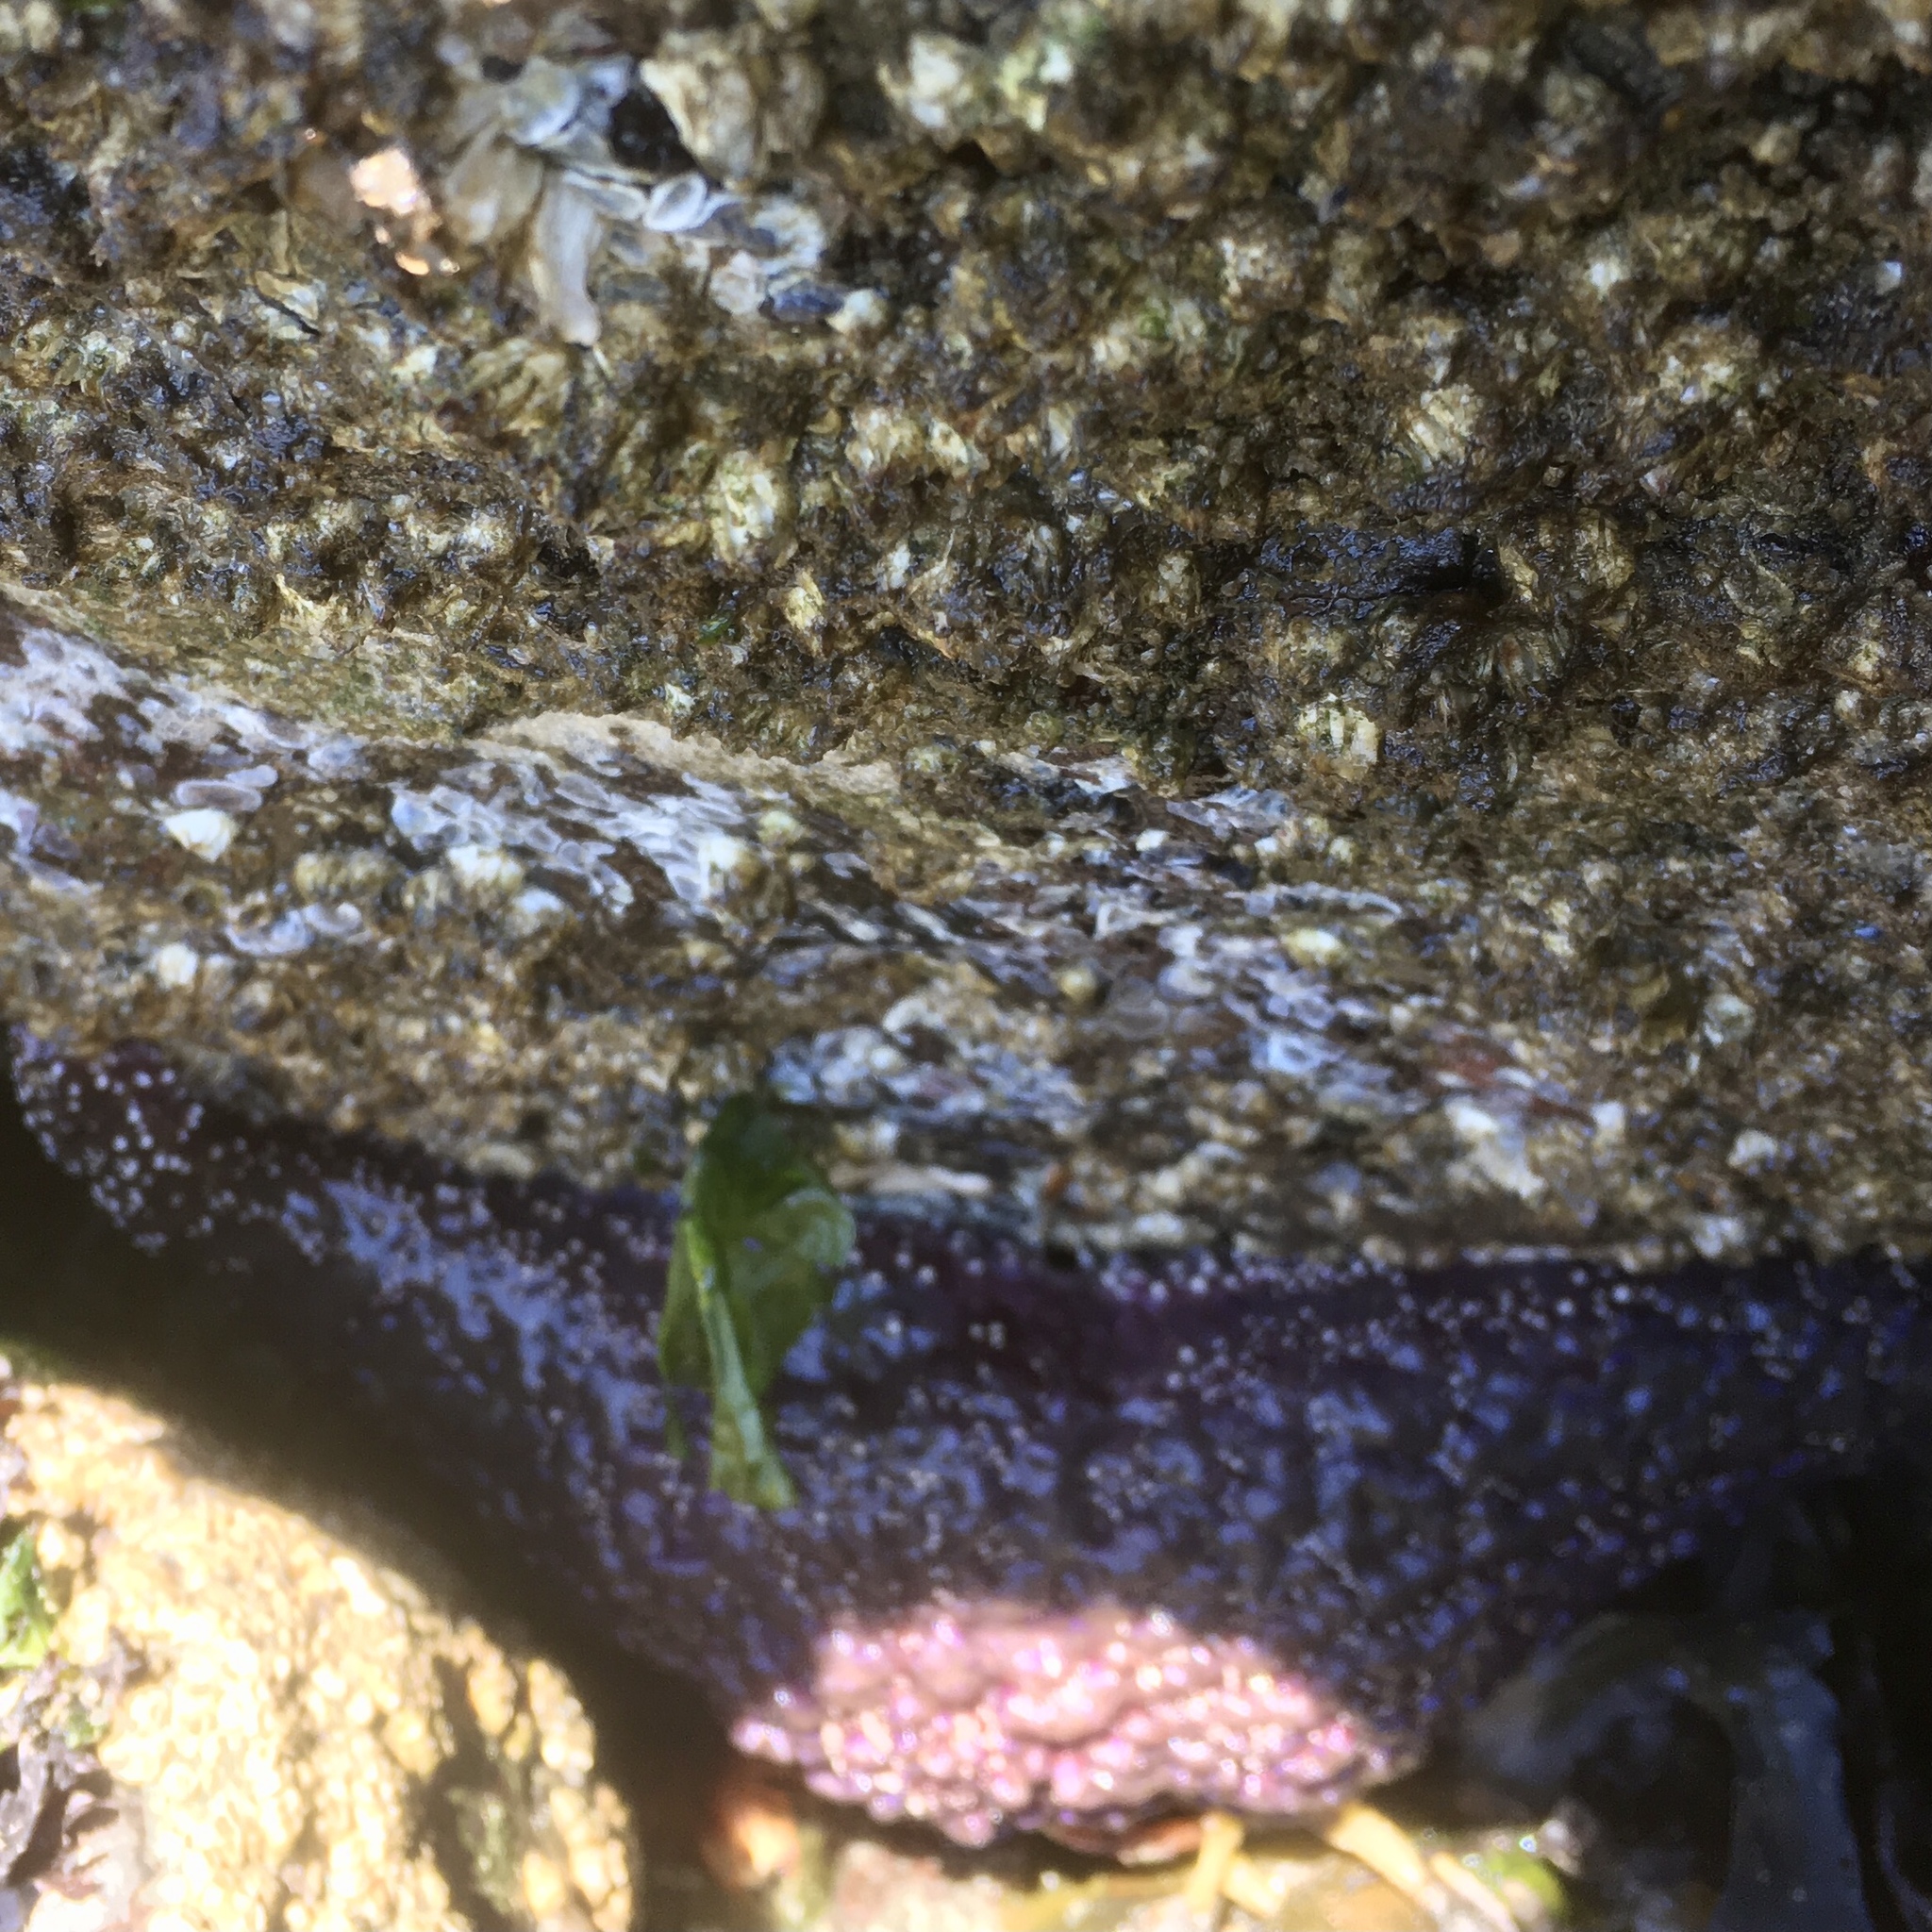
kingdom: Animalia
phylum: Echinodermata
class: Asteroidea
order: Forcipulatida
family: Asteriidae
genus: Pisaster
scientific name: Pisaster ochraceus
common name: Ochre stars
